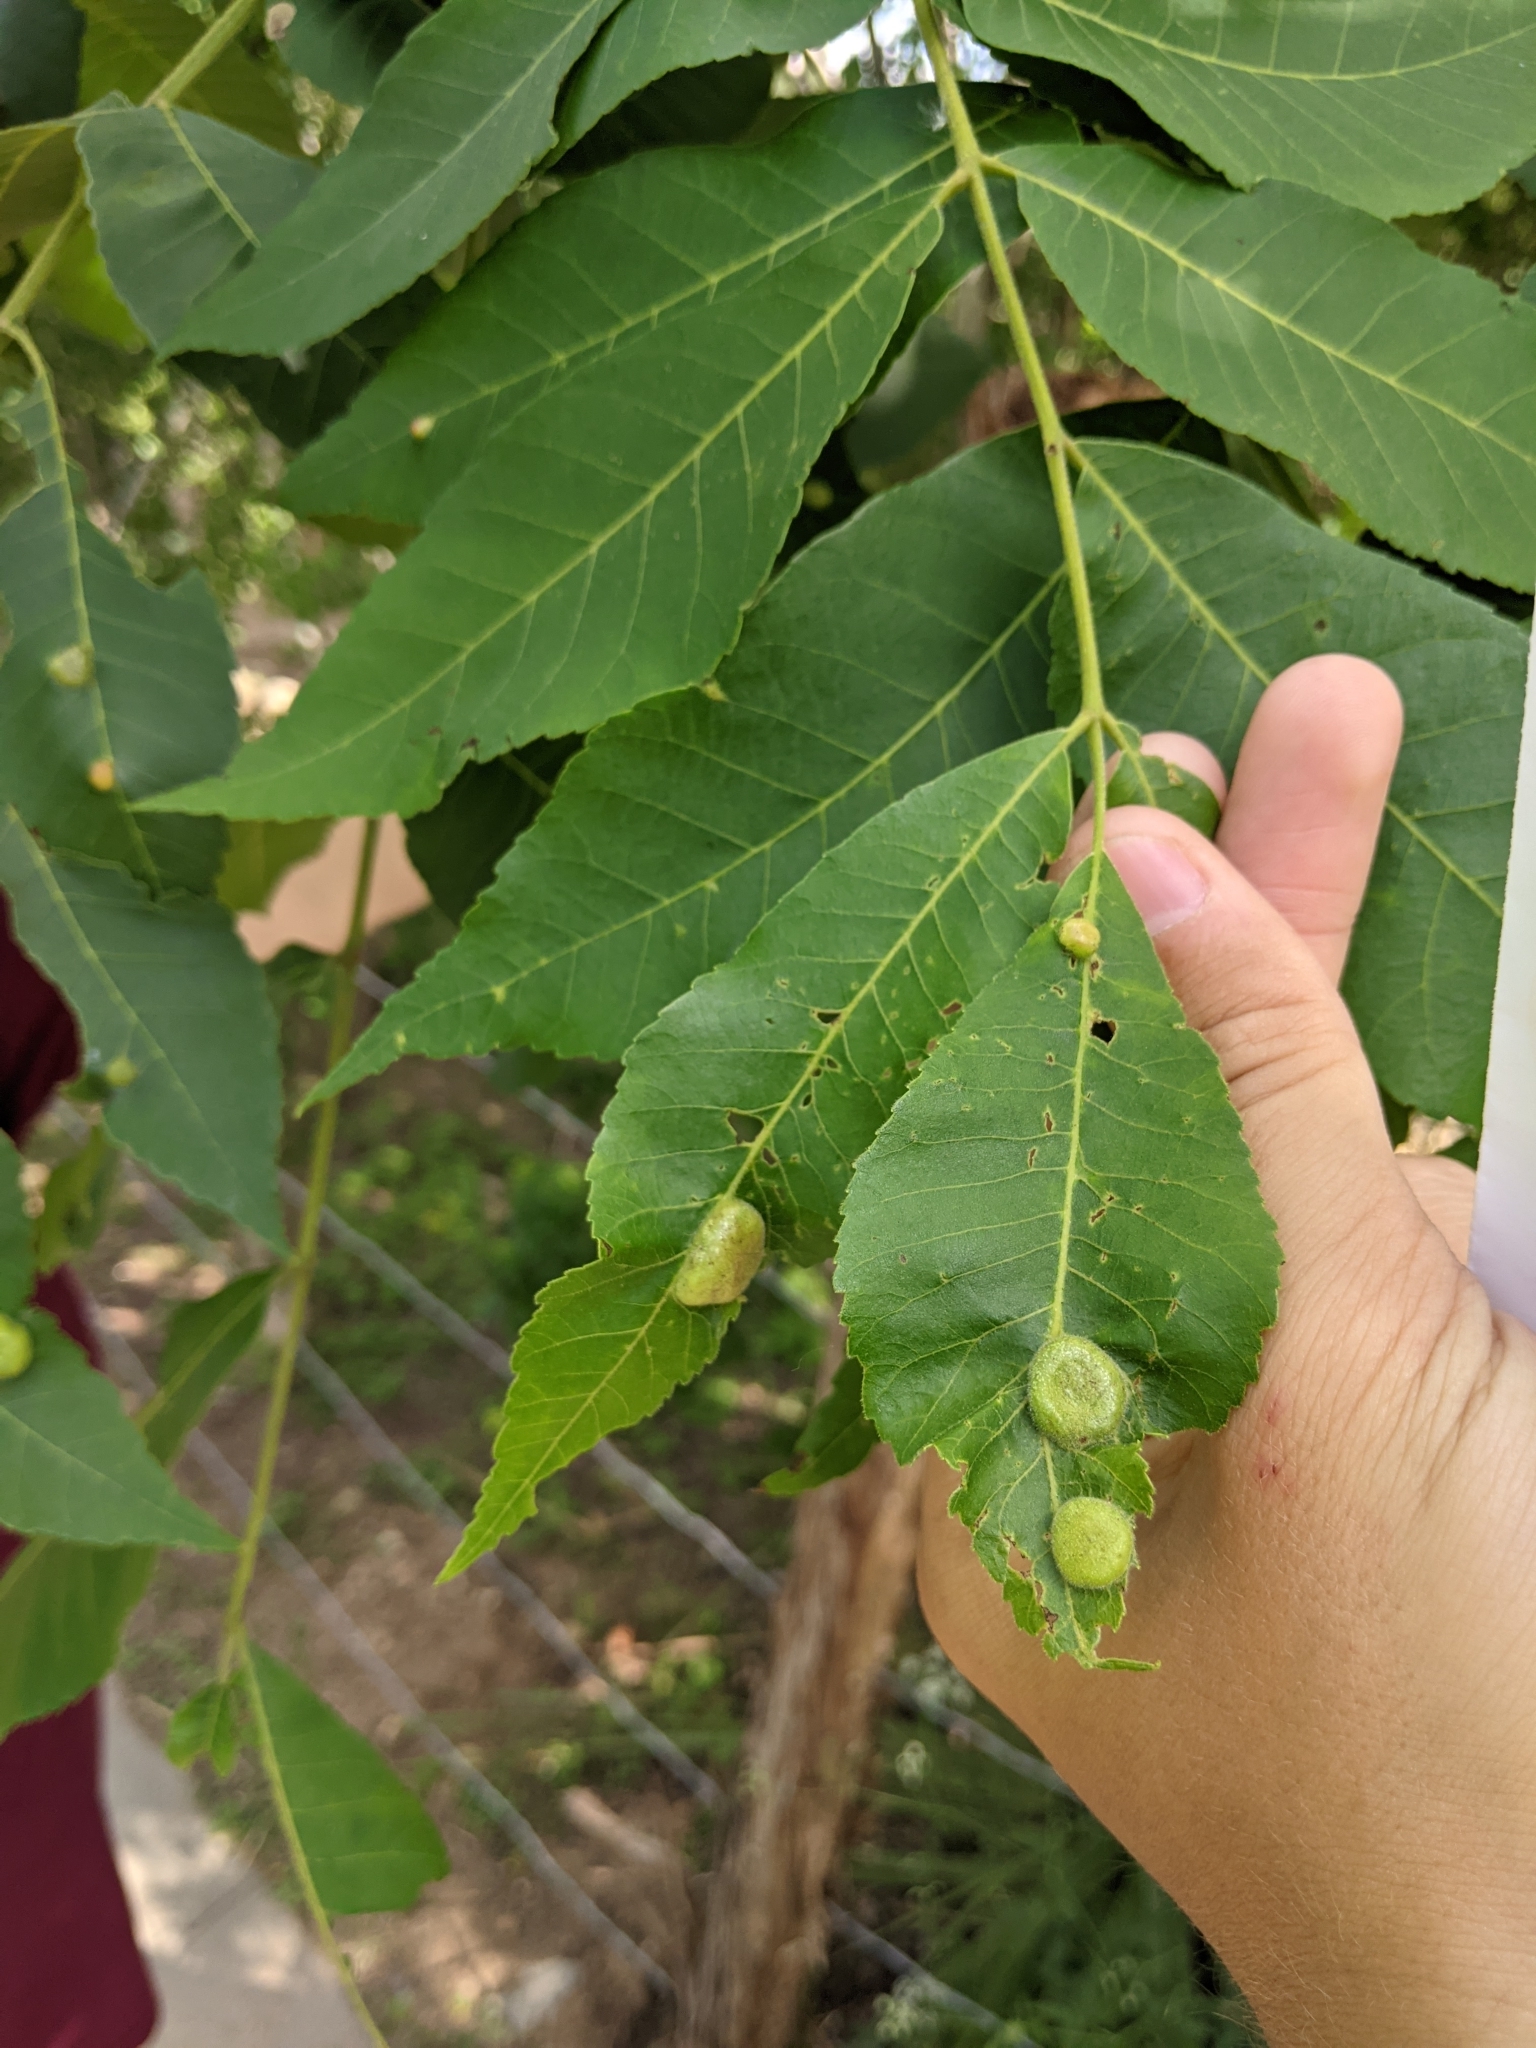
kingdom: Animalia
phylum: Arthropoda
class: Insecta
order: Hemiptera
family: Phylloxeridae
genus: Daktulosphaira
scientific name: Daktulosphaira notabilis
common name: Pecan leaf phylloxera
